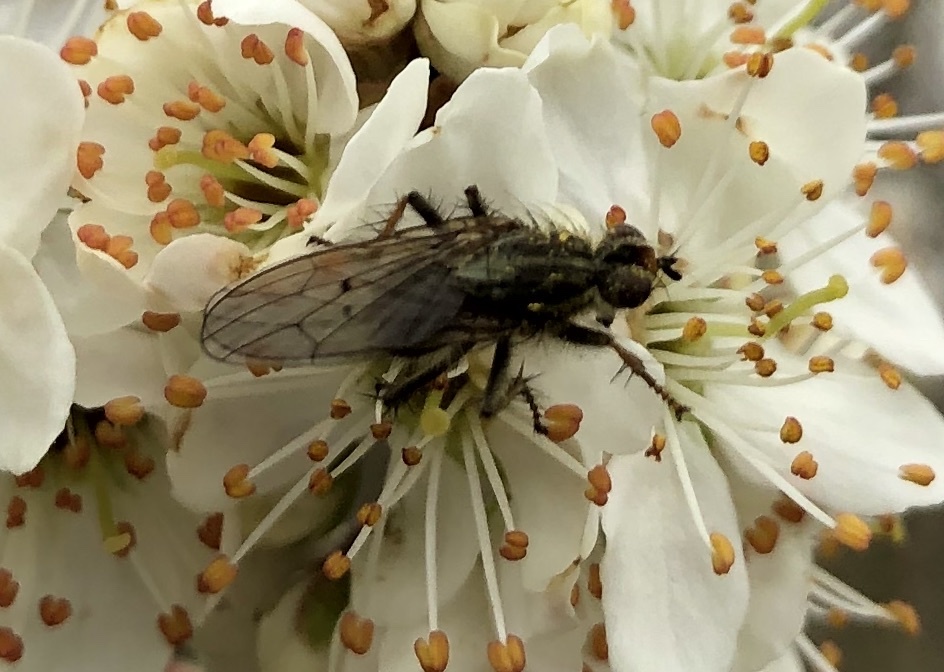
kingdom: Animalia
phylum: Arthropoda
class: Insecta
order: Diptera
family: Scathophagidae
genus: Scathophaga
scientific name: Scathophaga stercoraria
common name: Yellow dung fly
